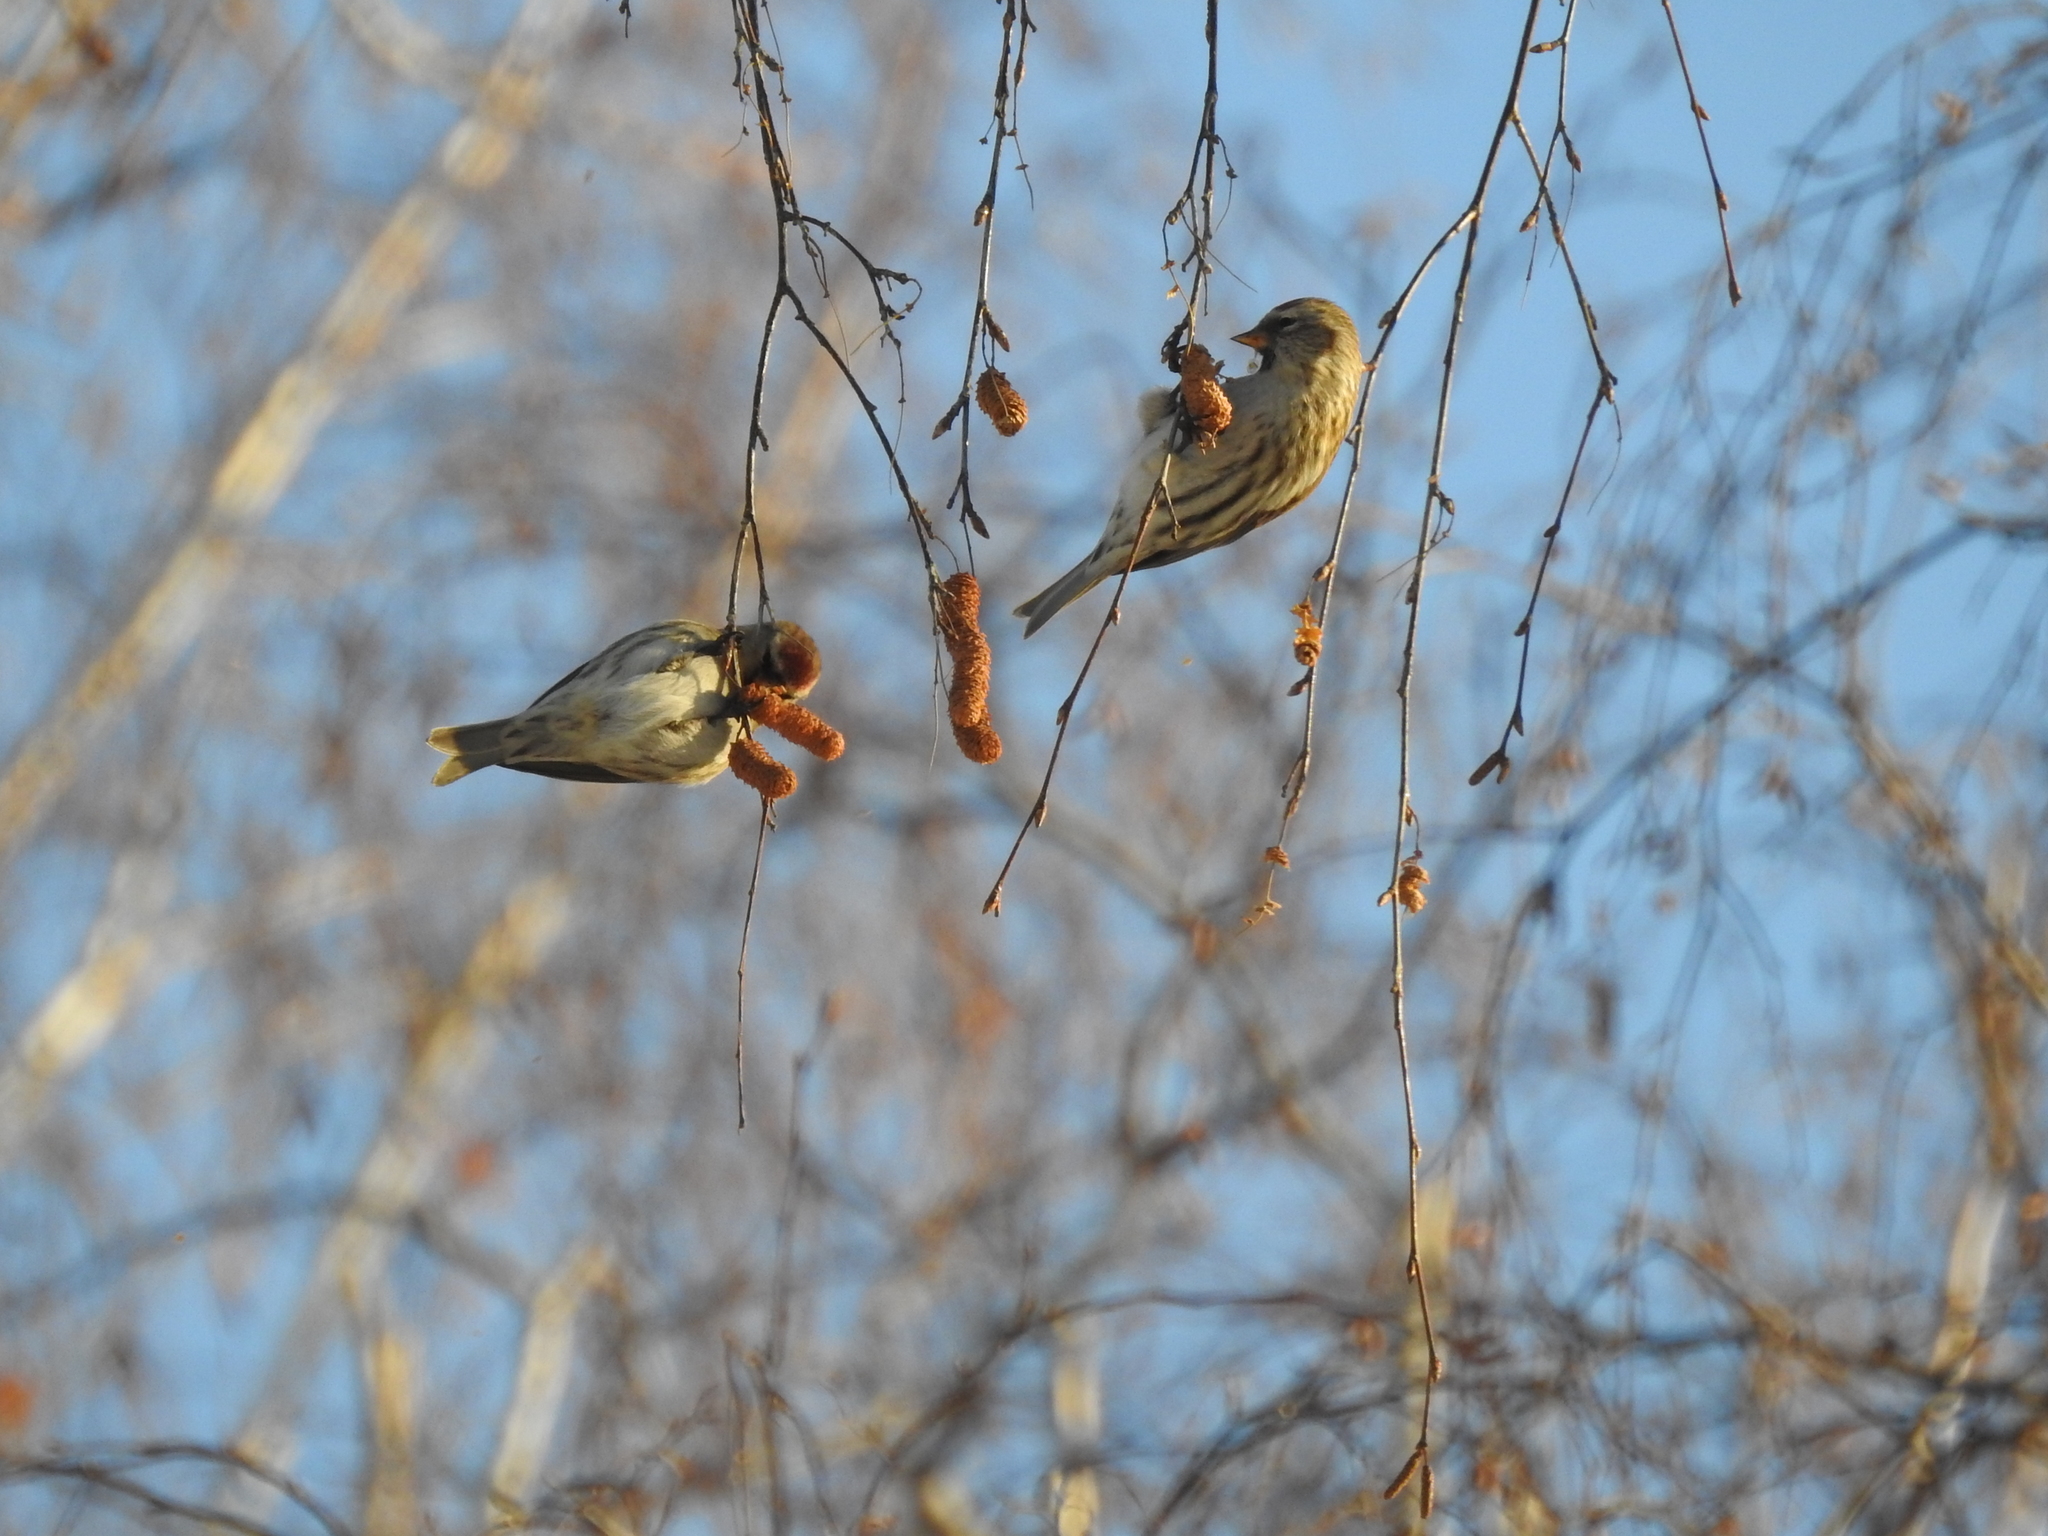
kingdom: Animalia
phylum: Chordata
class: Aves
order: Passeriformes
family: Fringillidae
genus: Acanthis
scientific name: Acanthis flammea
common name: Common redpoll
